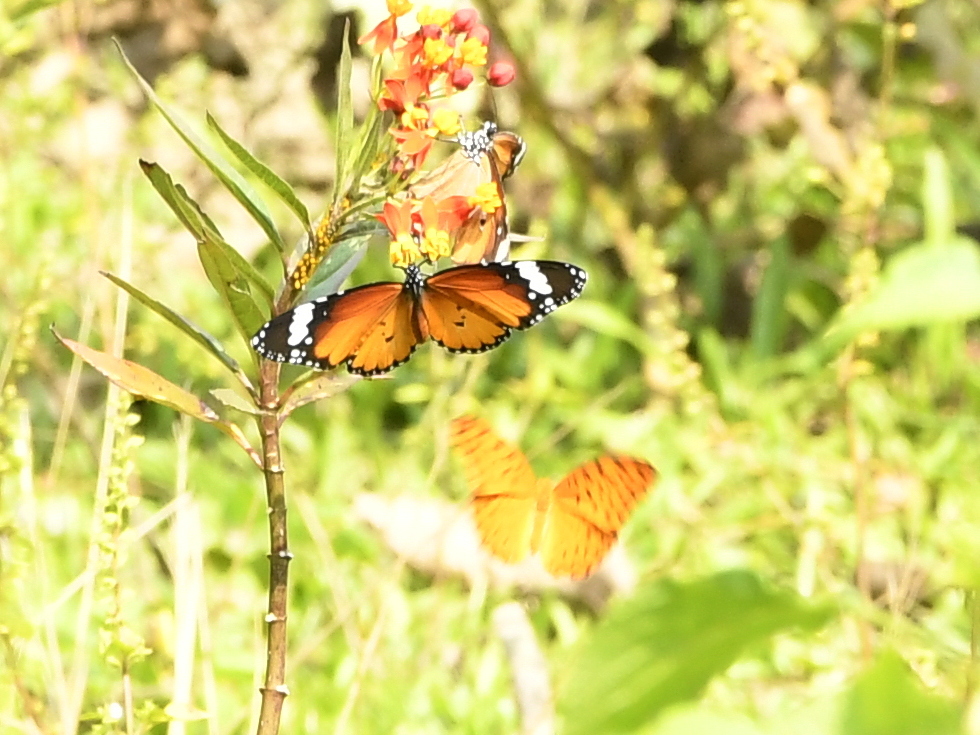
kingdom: Animalia
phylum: Arthropoda
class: Insecta
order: Lepidoptera
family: Nymphalidae
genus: Danaus
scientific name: Danaus chrysippus
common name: Plain tiger
